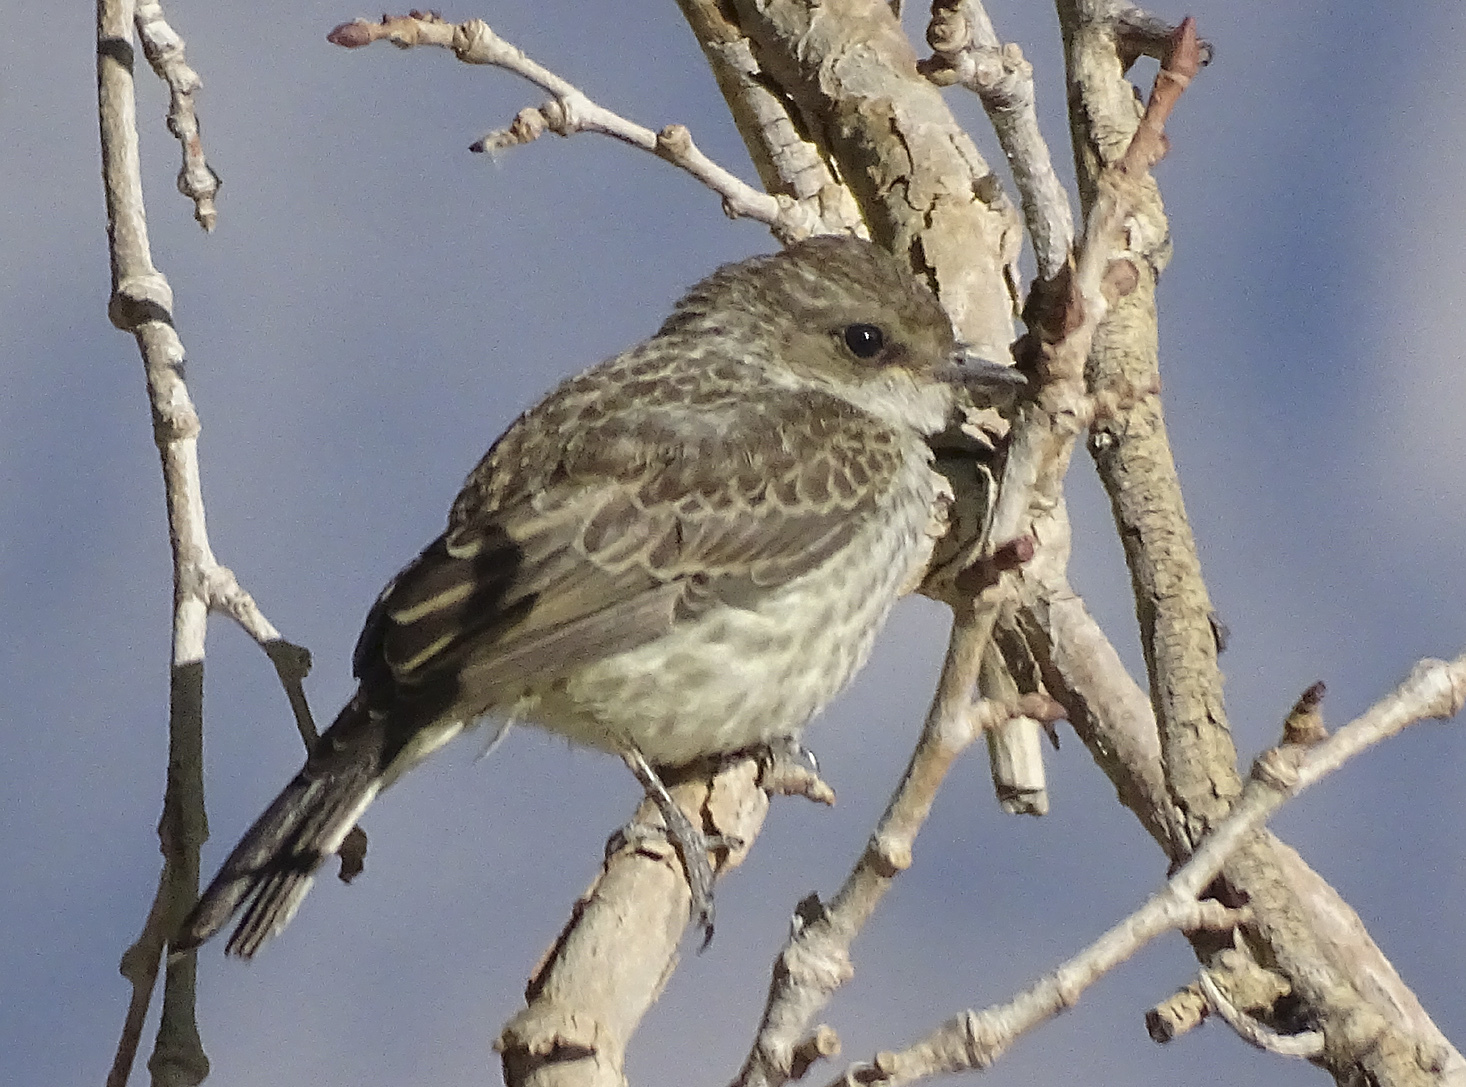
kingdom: Animalia
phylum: Chordata
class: Aves
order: Passeriformes
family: Tyrannidae
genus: Pyrocephalus
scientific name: Pyrocephalus rubinus
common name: Vermilion flycatcher
